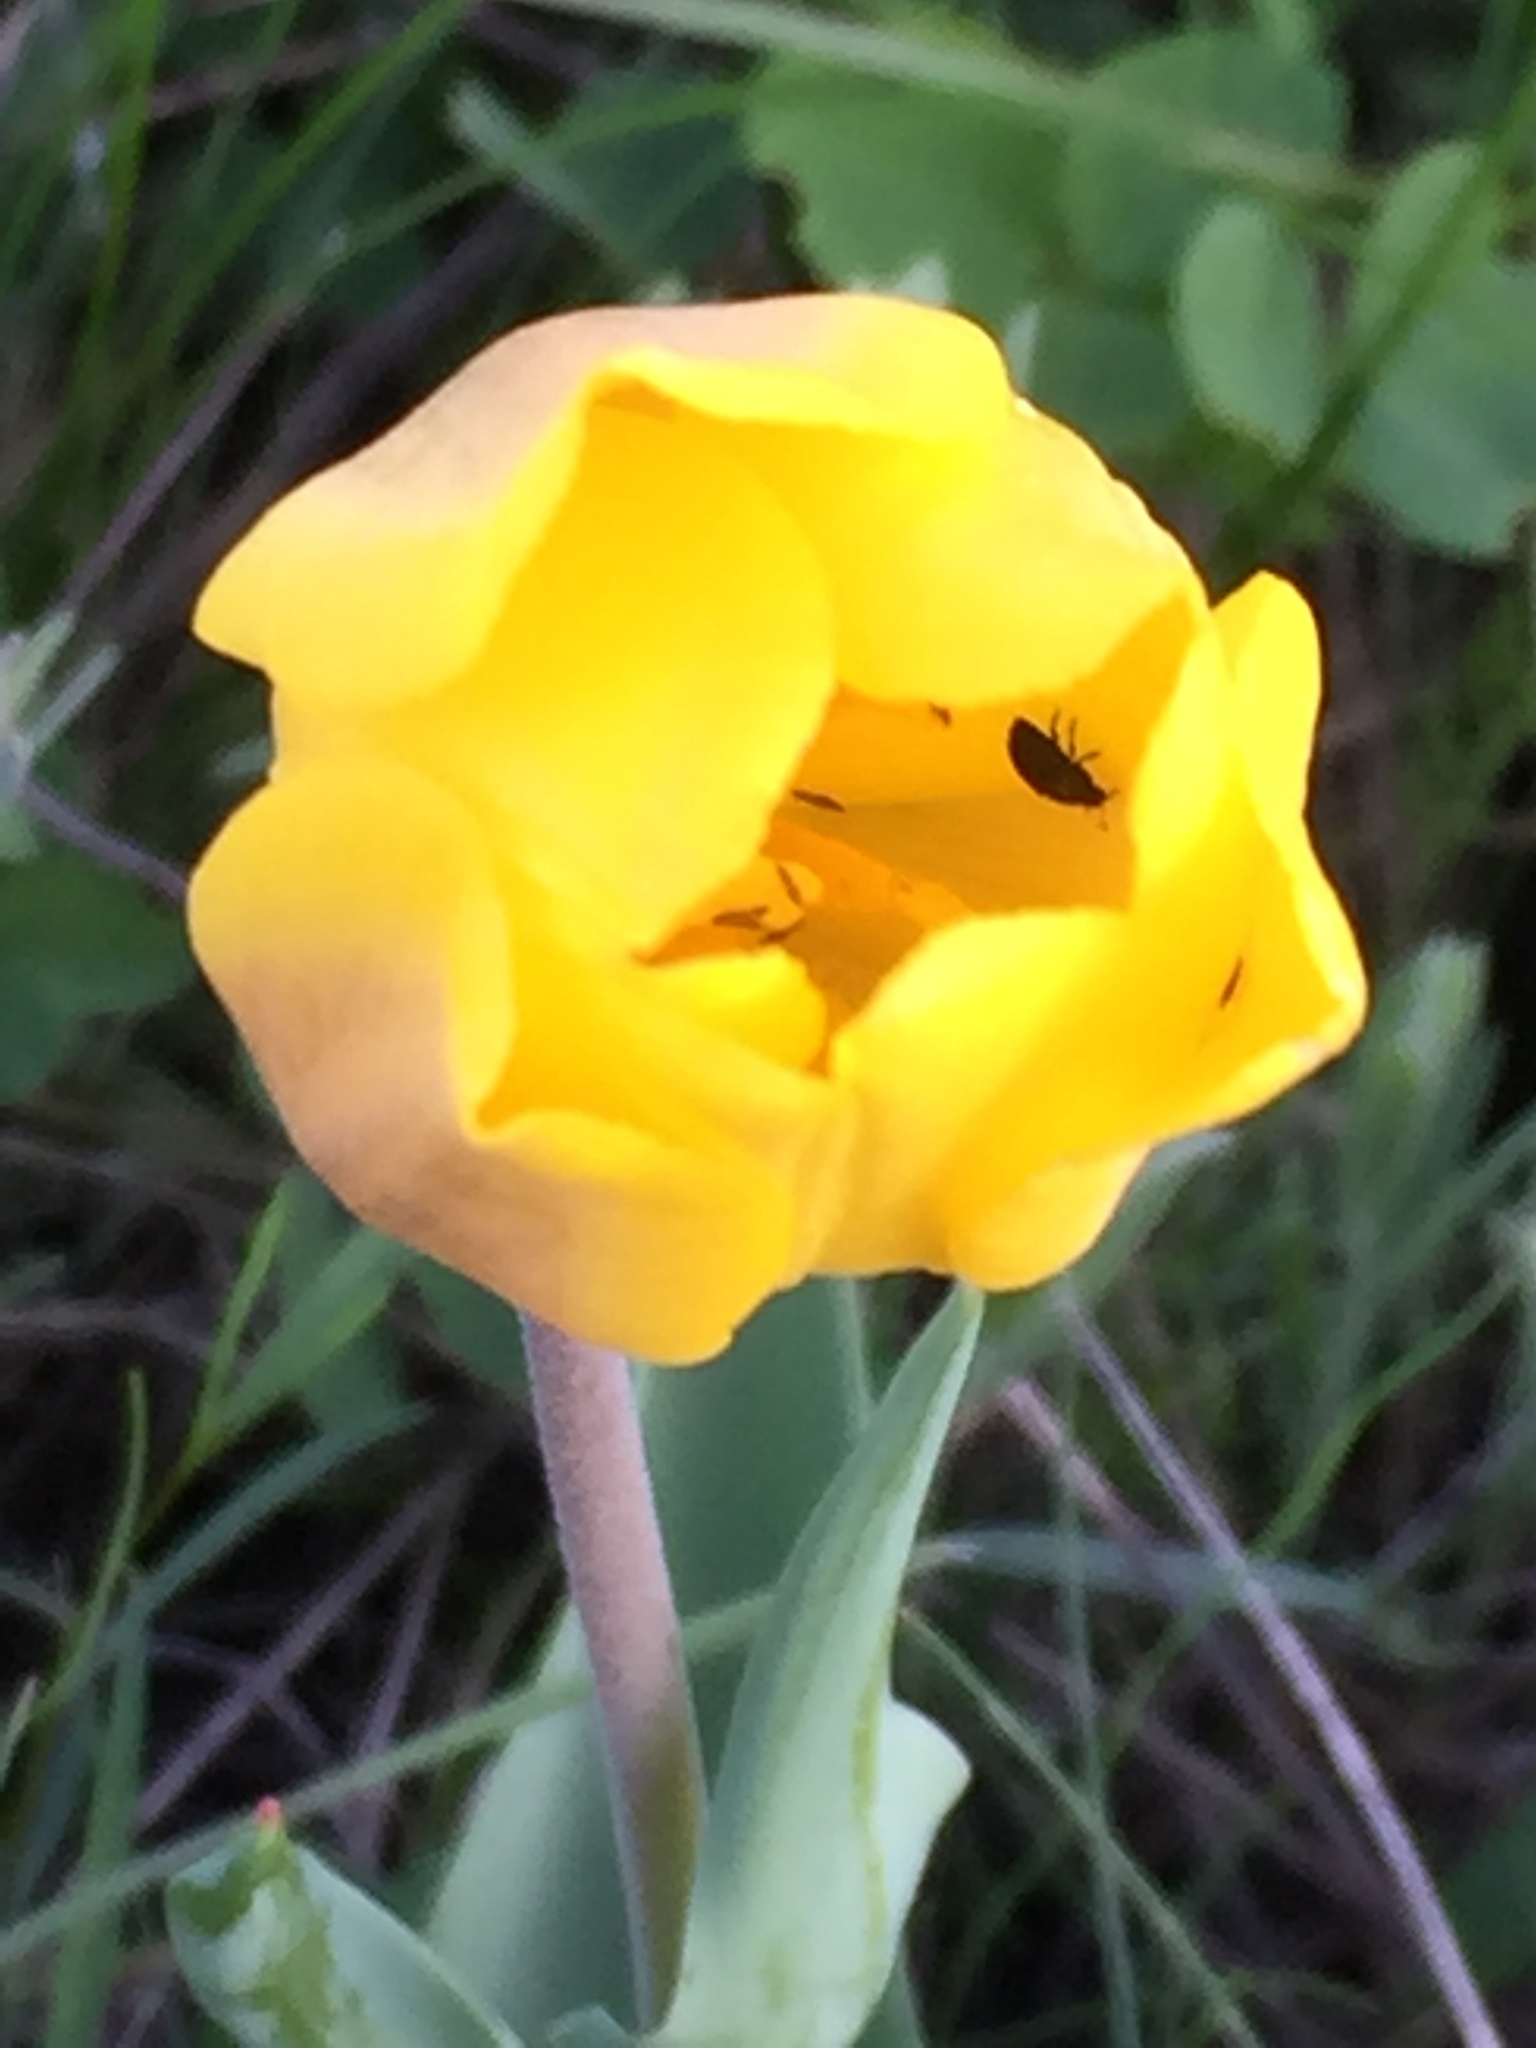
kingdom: Plantae
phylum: Tracheophyta
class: Liliopsida
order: Liliales
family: Liliaceae
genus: Tulipa
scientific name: Tulipa suaveolens
